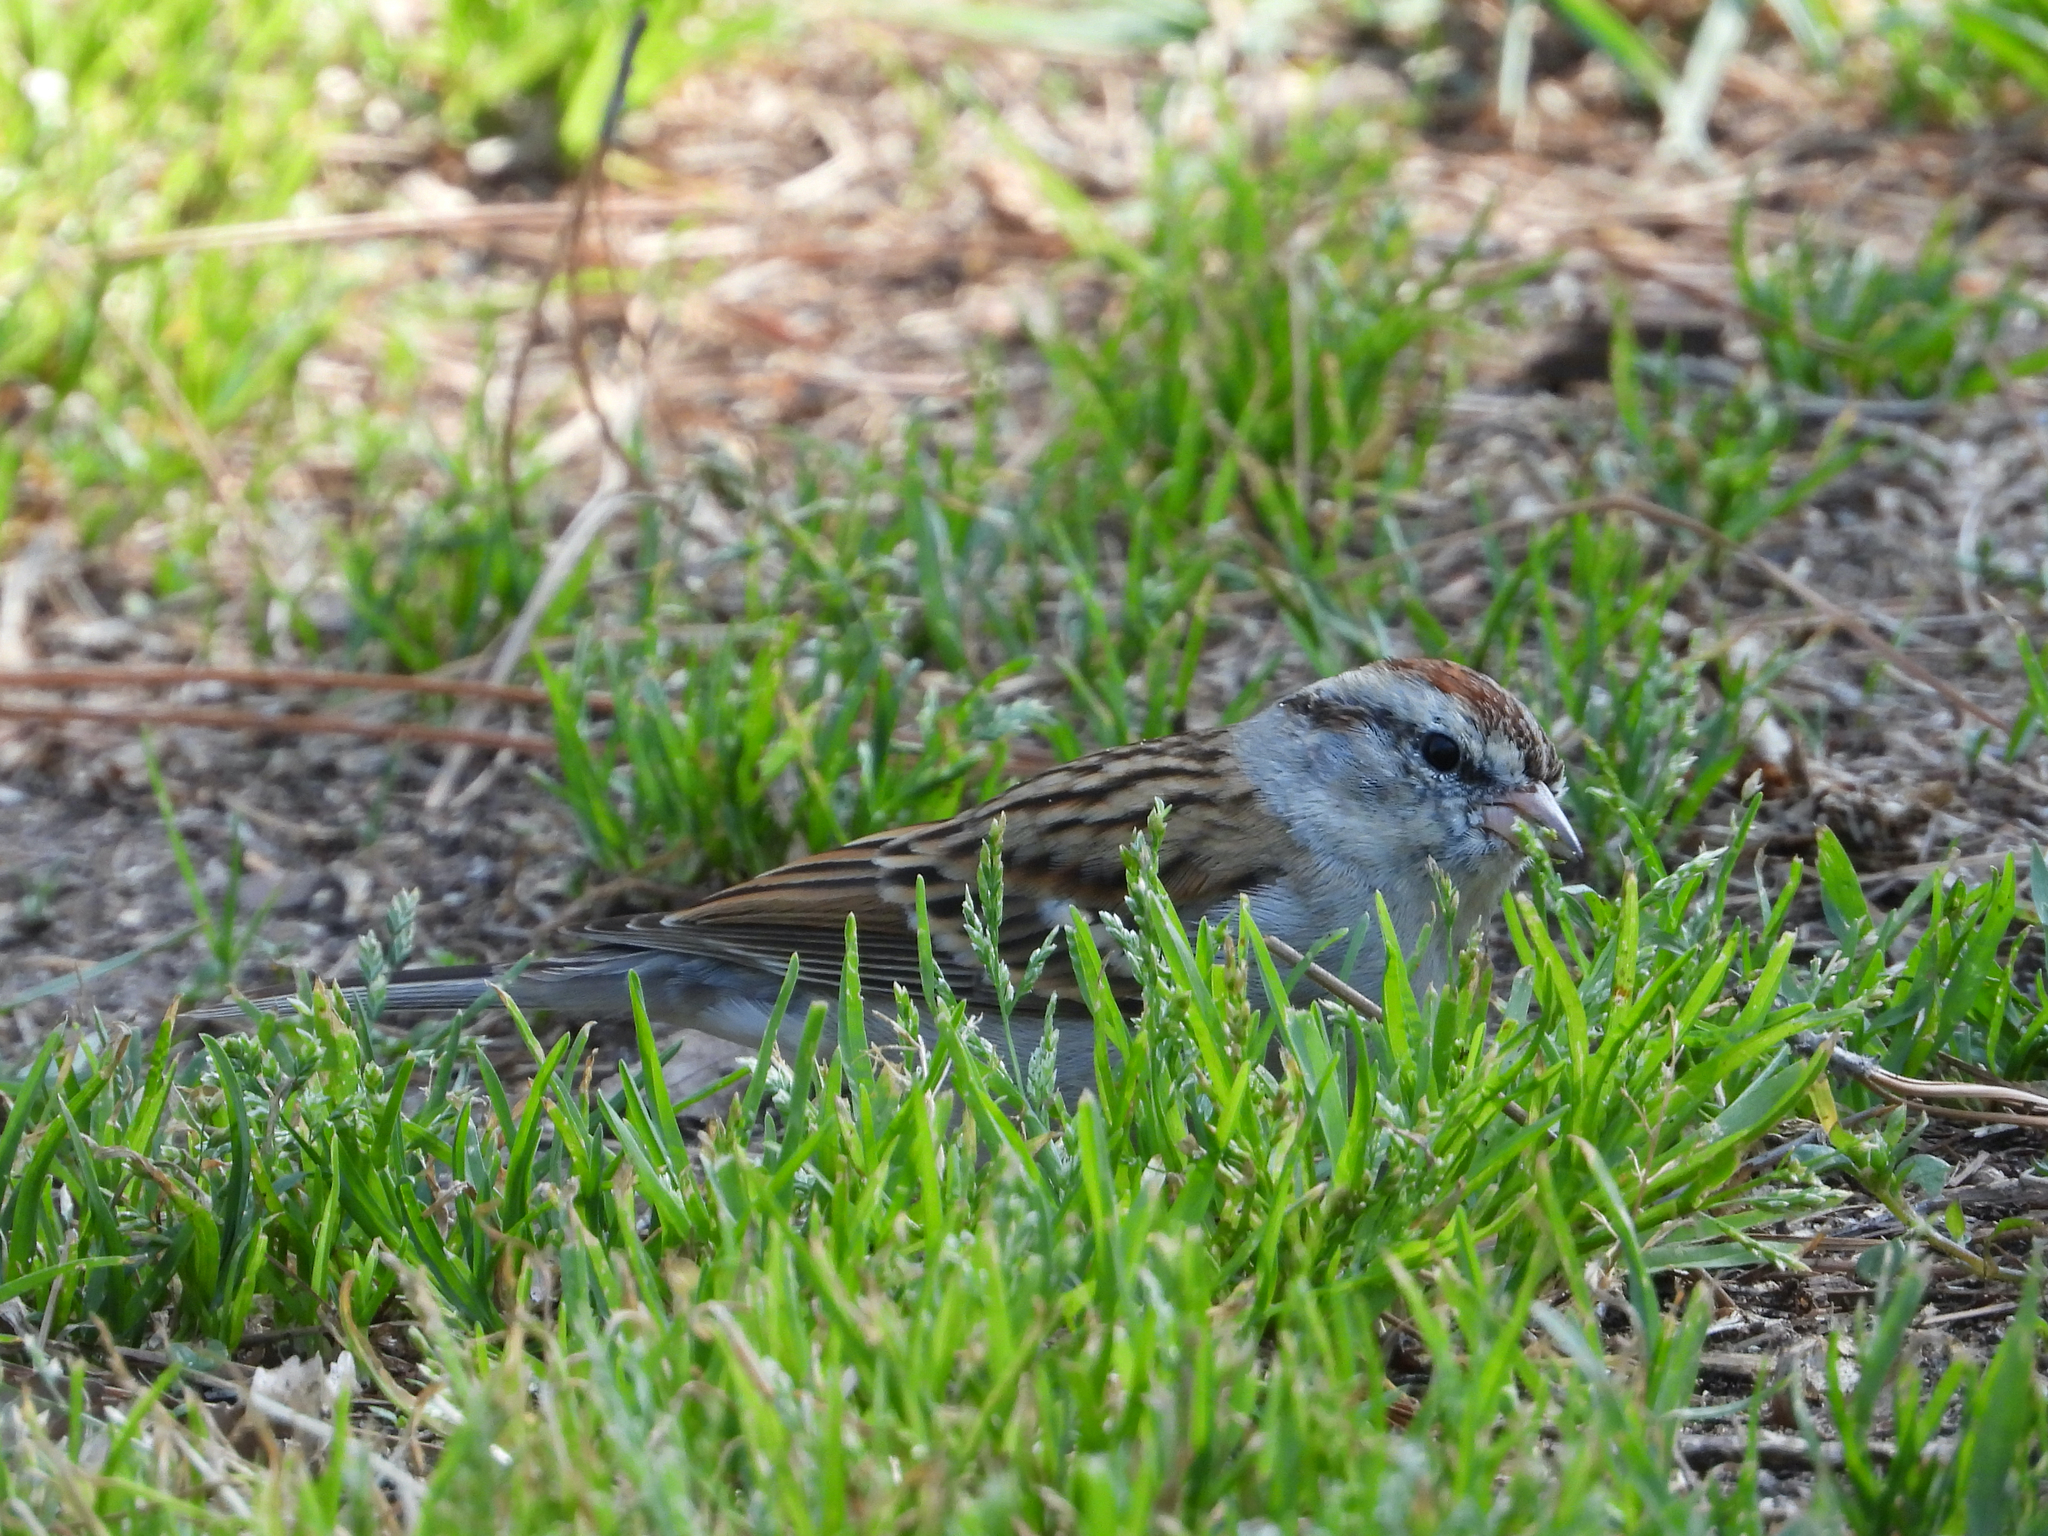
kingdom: Animalia
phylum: Chordata
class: Aves
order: Passeriformes
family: Passerellidae
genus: Spizella
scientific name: Spizella passerina
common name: Chipping sparrow
